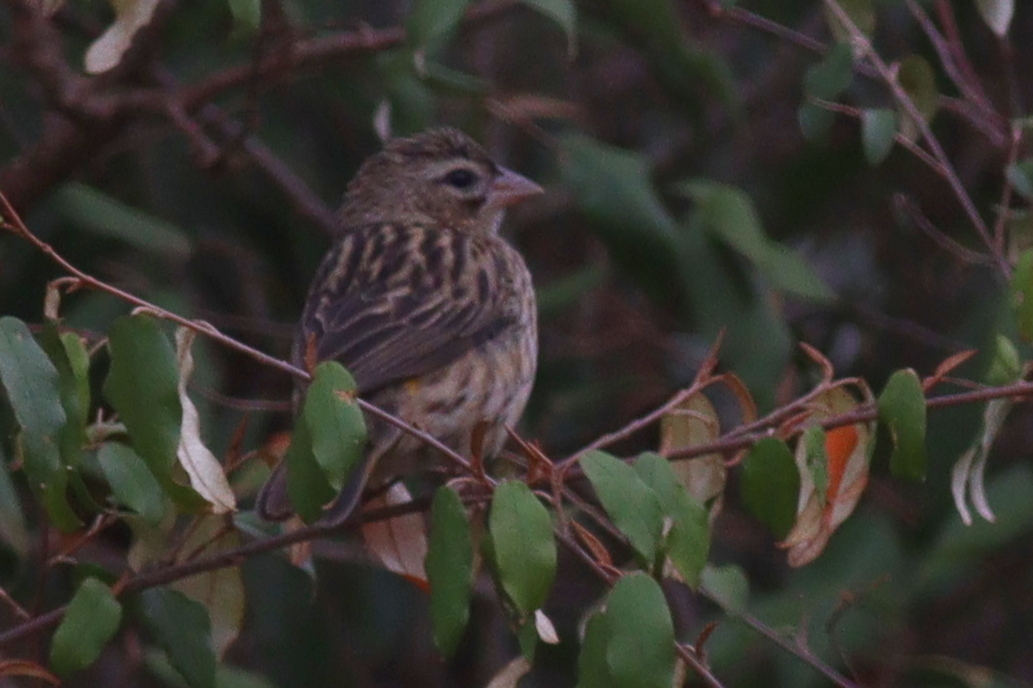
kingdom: Animalia
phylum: Chordata
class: Aves
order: Passeriformes
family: Ploceidae
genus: Euplectes
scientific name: Euplectes capensis
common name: Yellow bishop
